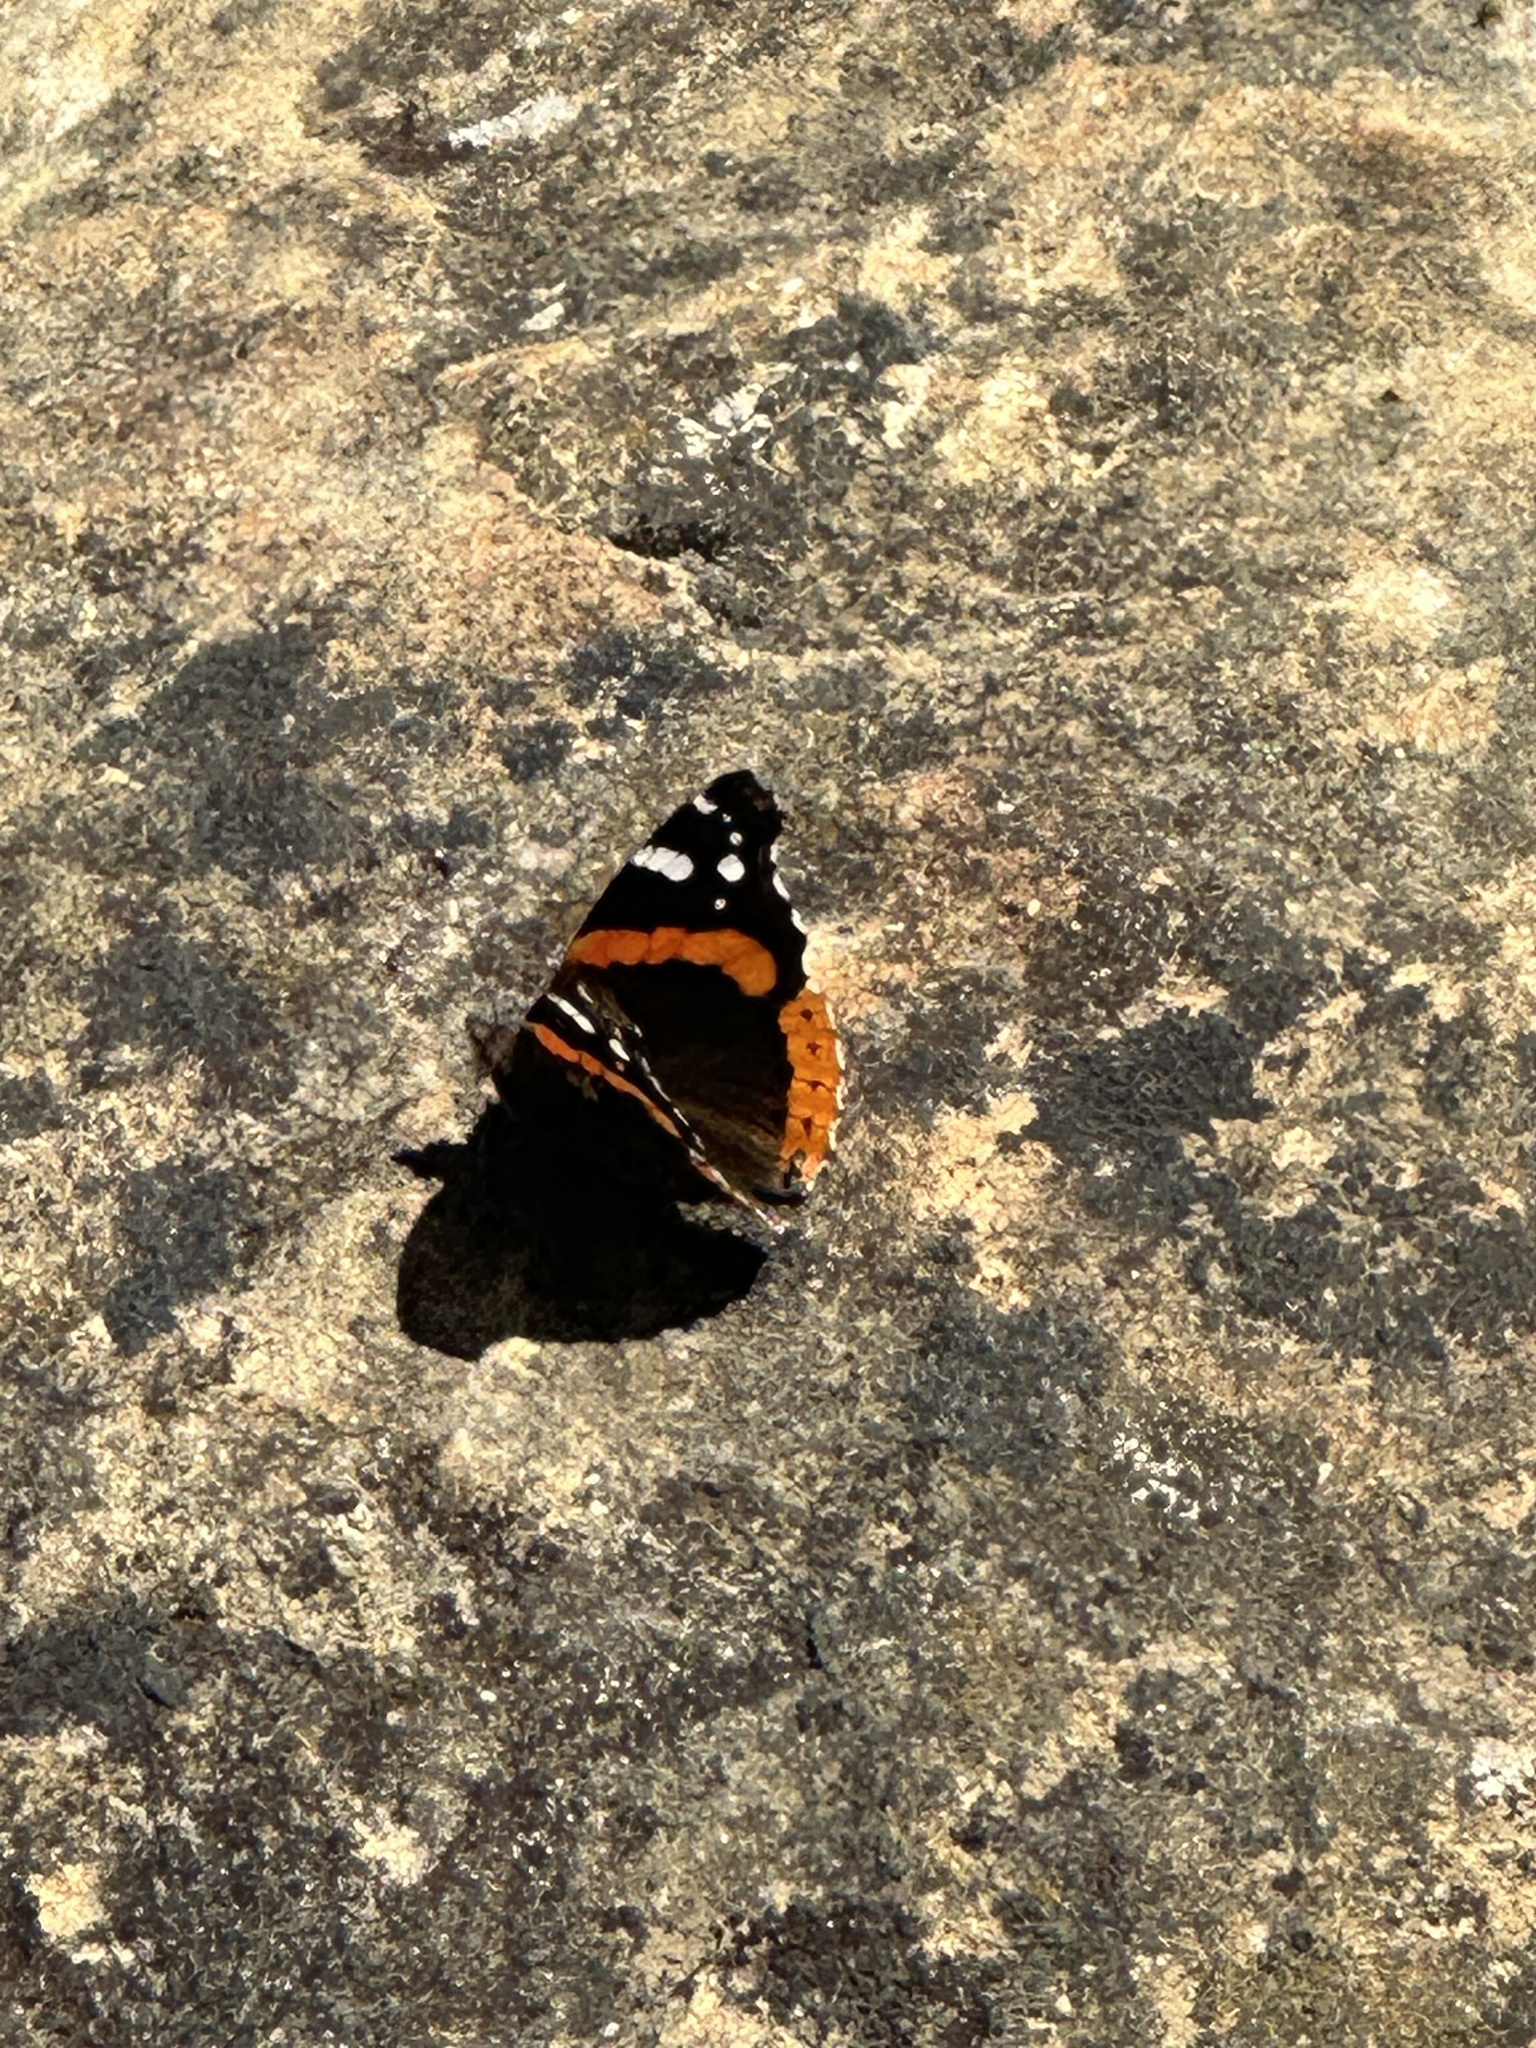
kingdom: Animalia
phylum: Arthropoda
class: Insecta
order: Lepidoptera
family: Nymphalidae
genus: Vanessa
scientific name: Vanessa atalanta
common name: Red admiral
